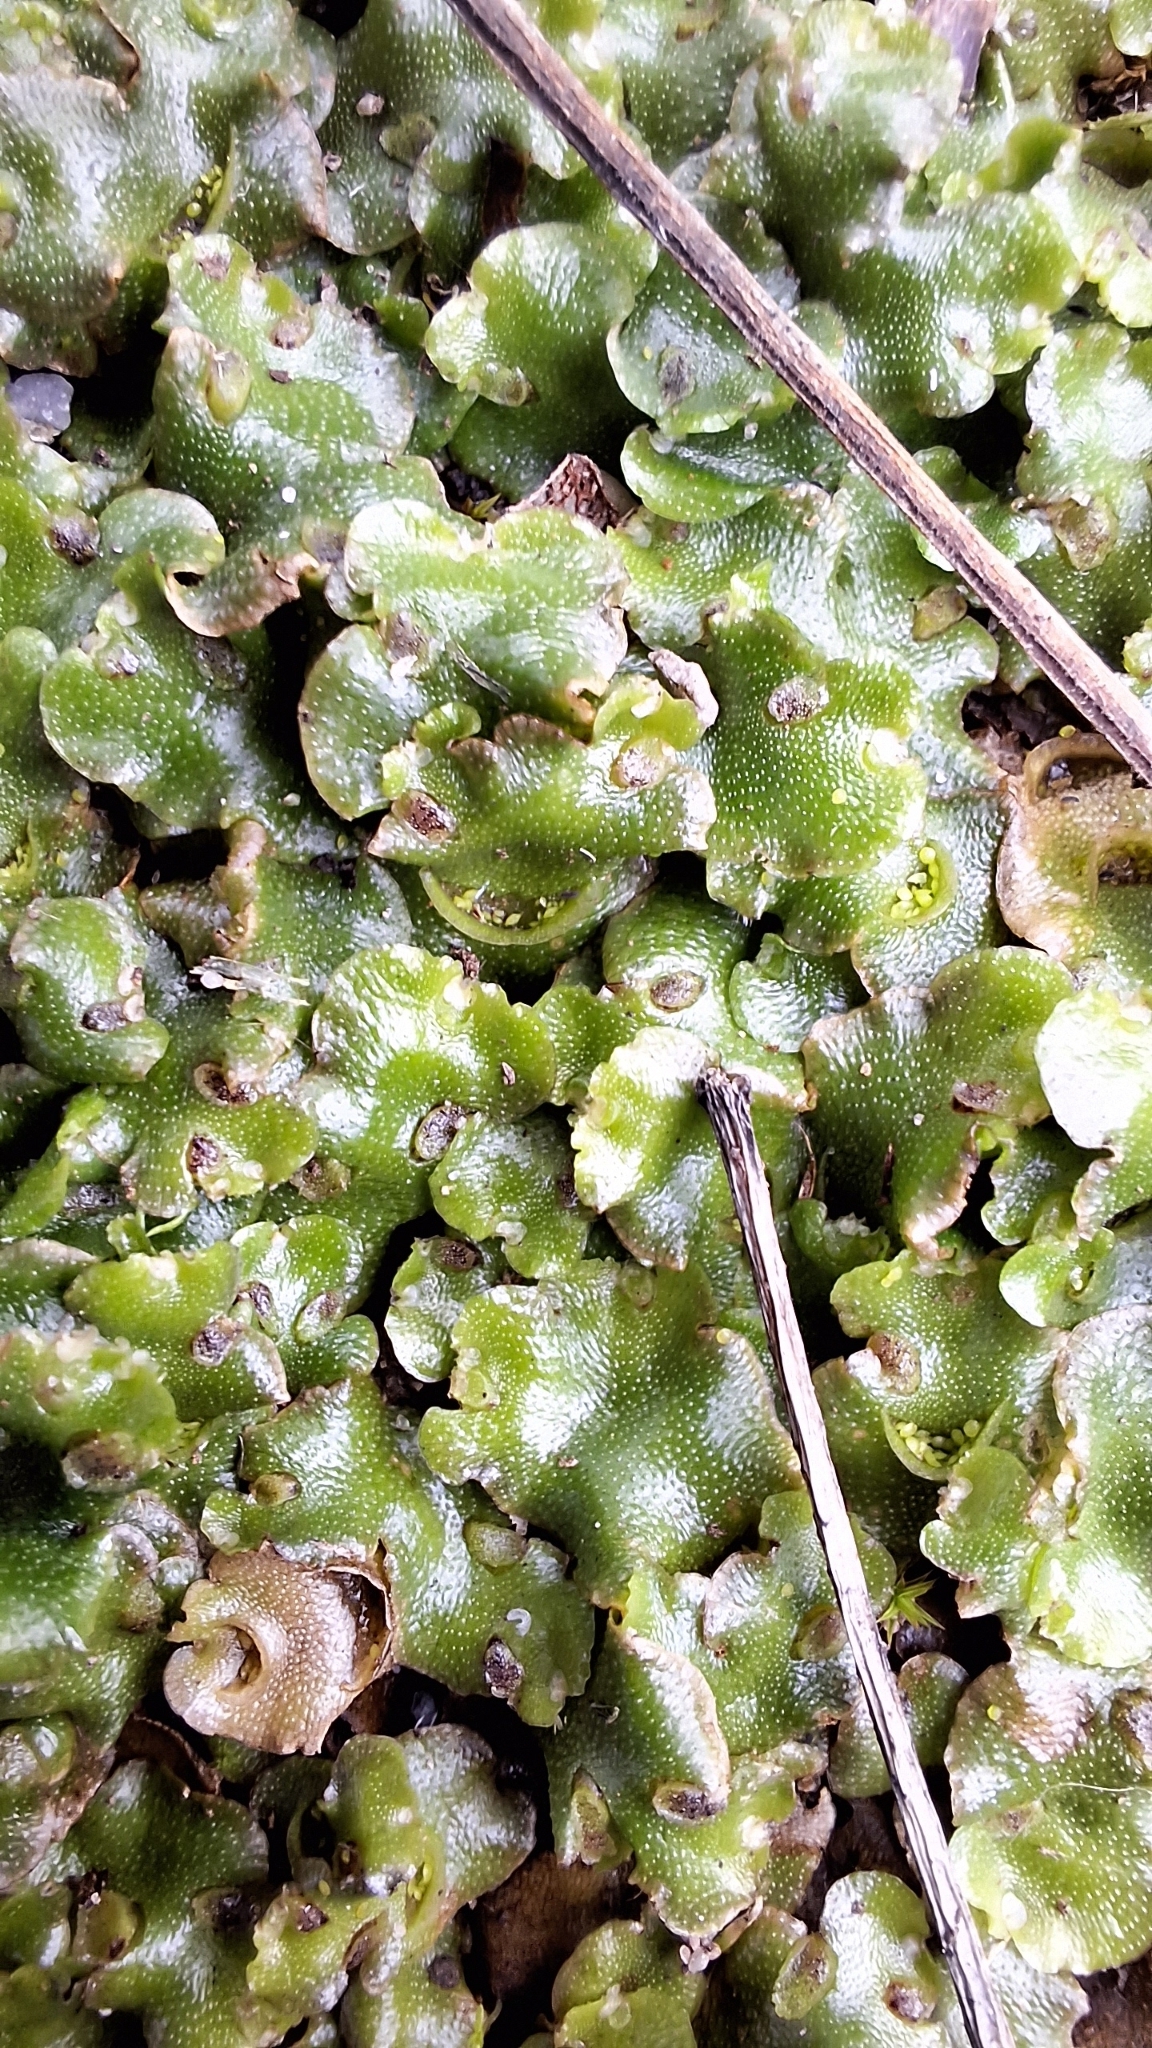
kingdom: Plantae
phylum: Marchantiophyta
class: Marchantiopsida
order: Lunulariales
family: Lunulariaceae
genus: Lunularia
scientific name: Lunularia cruciata
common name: Crescent-cup liverwort
